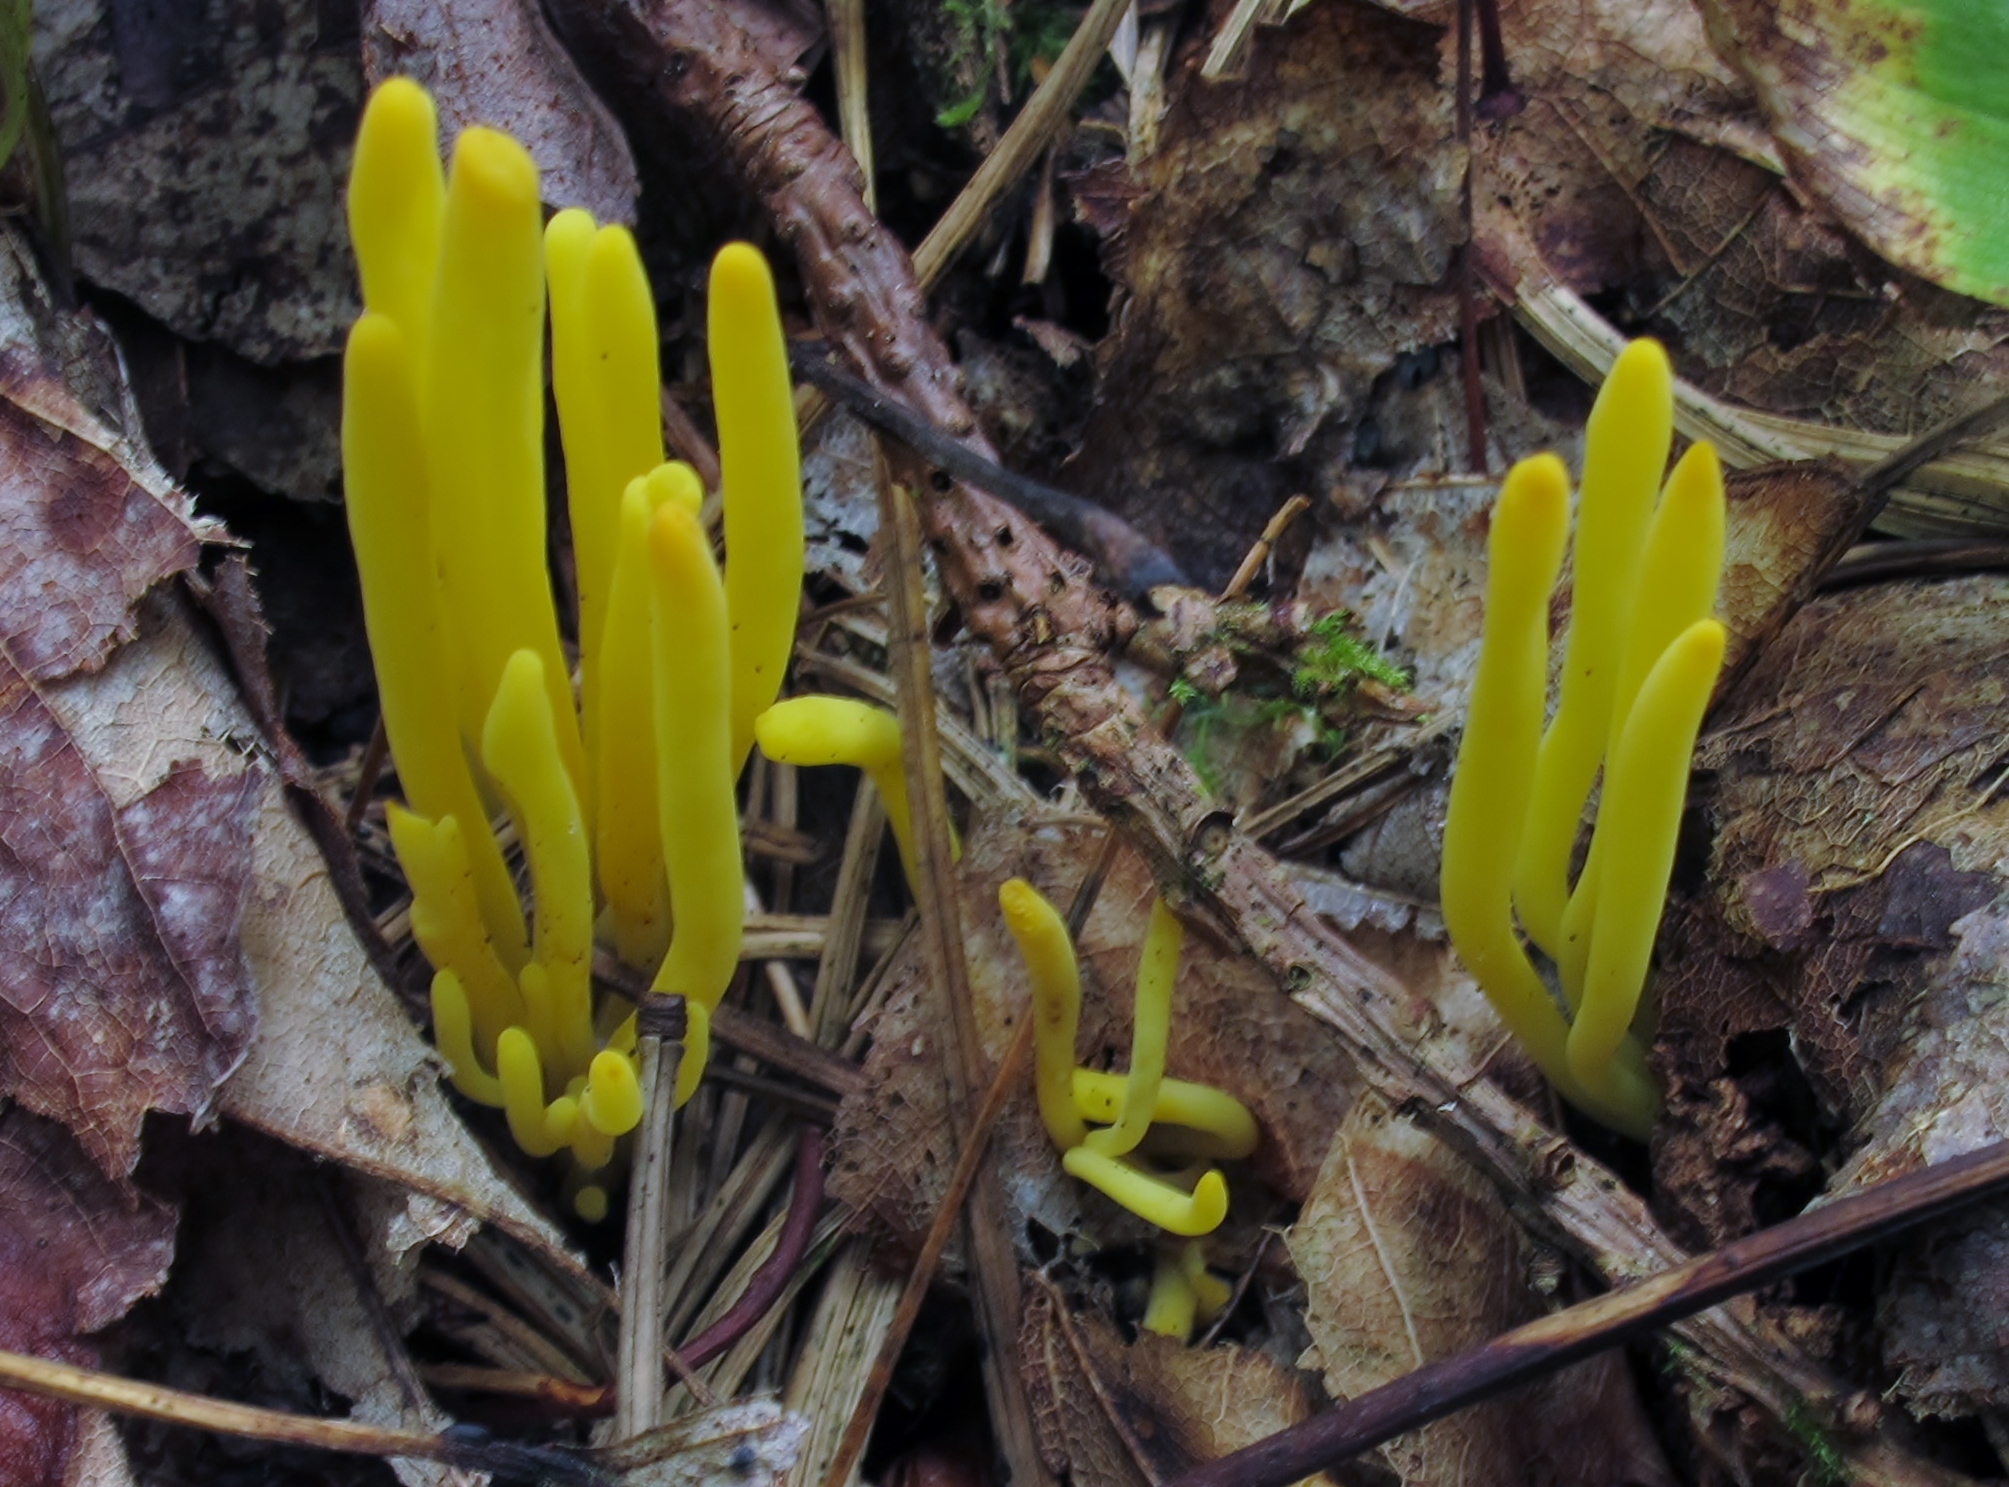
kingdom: Fungi
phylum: Basidiomycota
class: Agaricomycetes
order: Agaricales
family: Clavariaceae
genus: Clavulinopsis
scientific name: Clavulinopsis fusiformis
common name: Golden spindles
